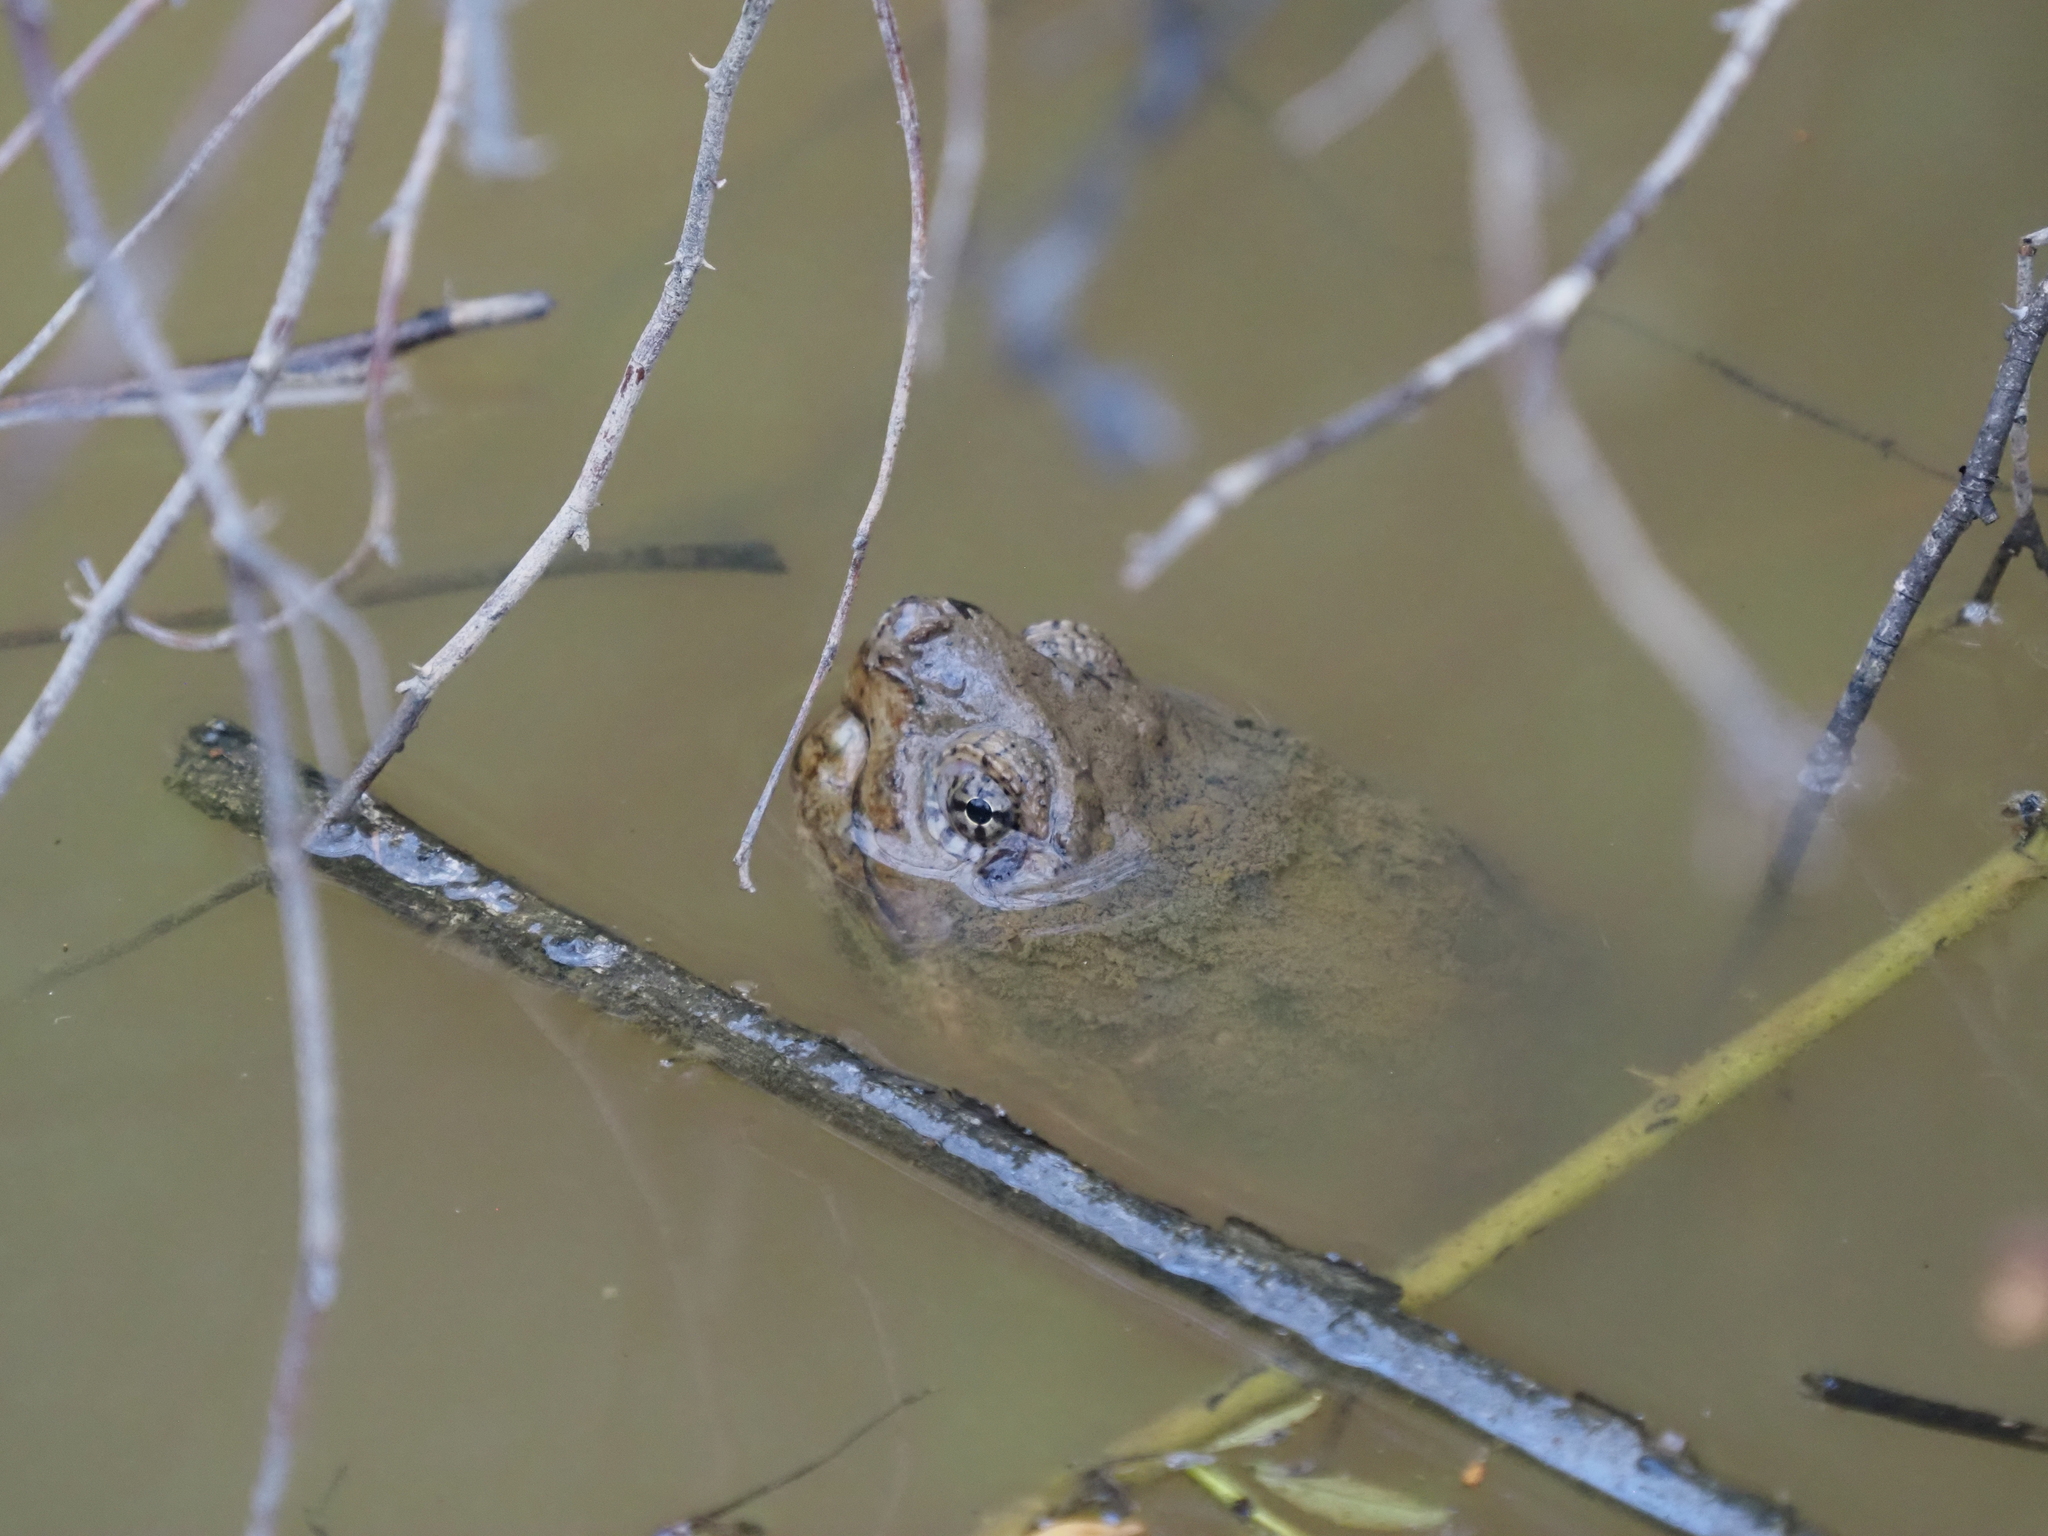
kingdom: Animalia
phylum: Chordata
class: Testudines
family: Chelydridae
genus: Chelydra
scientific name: Chelydra serpentina
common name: Common snapping turtle
